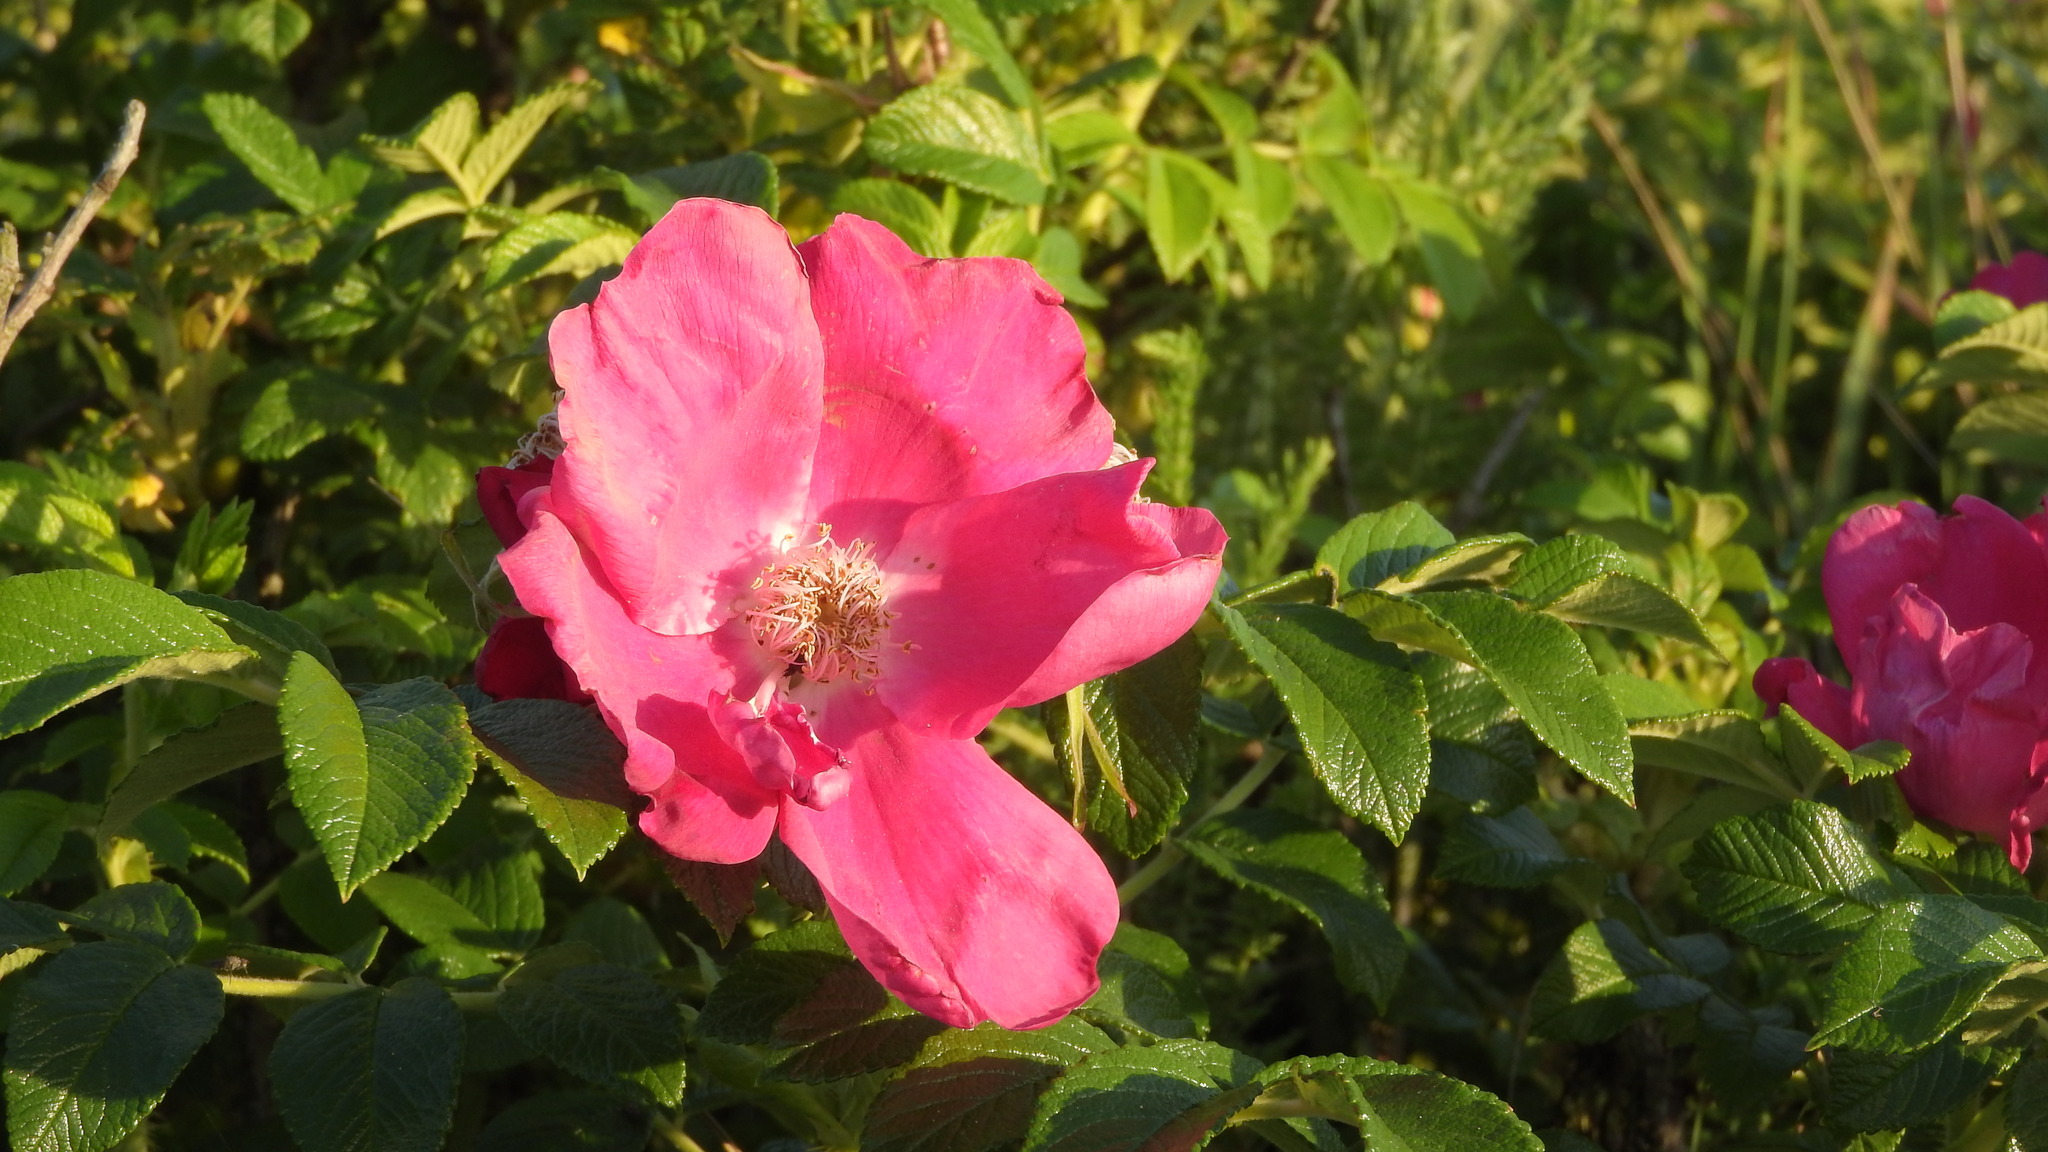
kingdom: Plantae
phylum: Tracheophyta
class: Magnoliopsida
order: Rosales
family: Rosaceae
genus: Rosa
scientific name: Rosa rugosa
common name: Japanese rose
